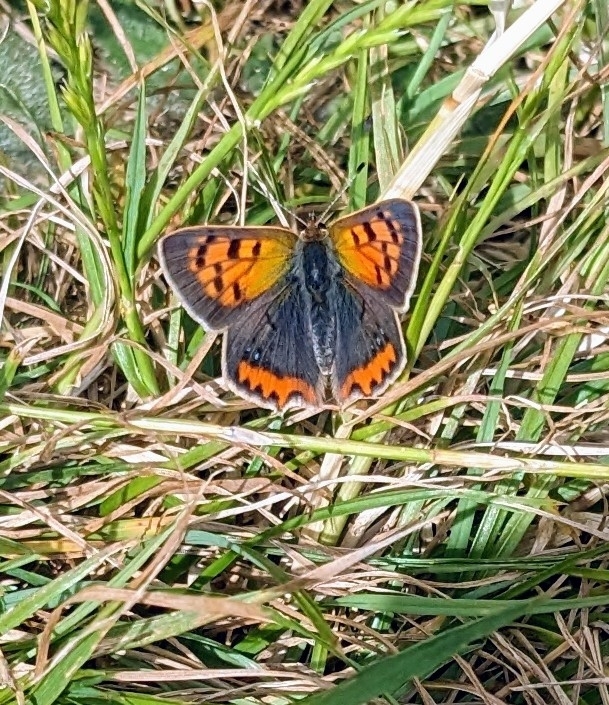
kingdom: Animalia
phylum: Arthropoda
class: Insecta
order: Lepidoptera
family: Lycaenidae
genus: Lycaena
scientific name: Lycaena phlaeas
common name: Small copper
